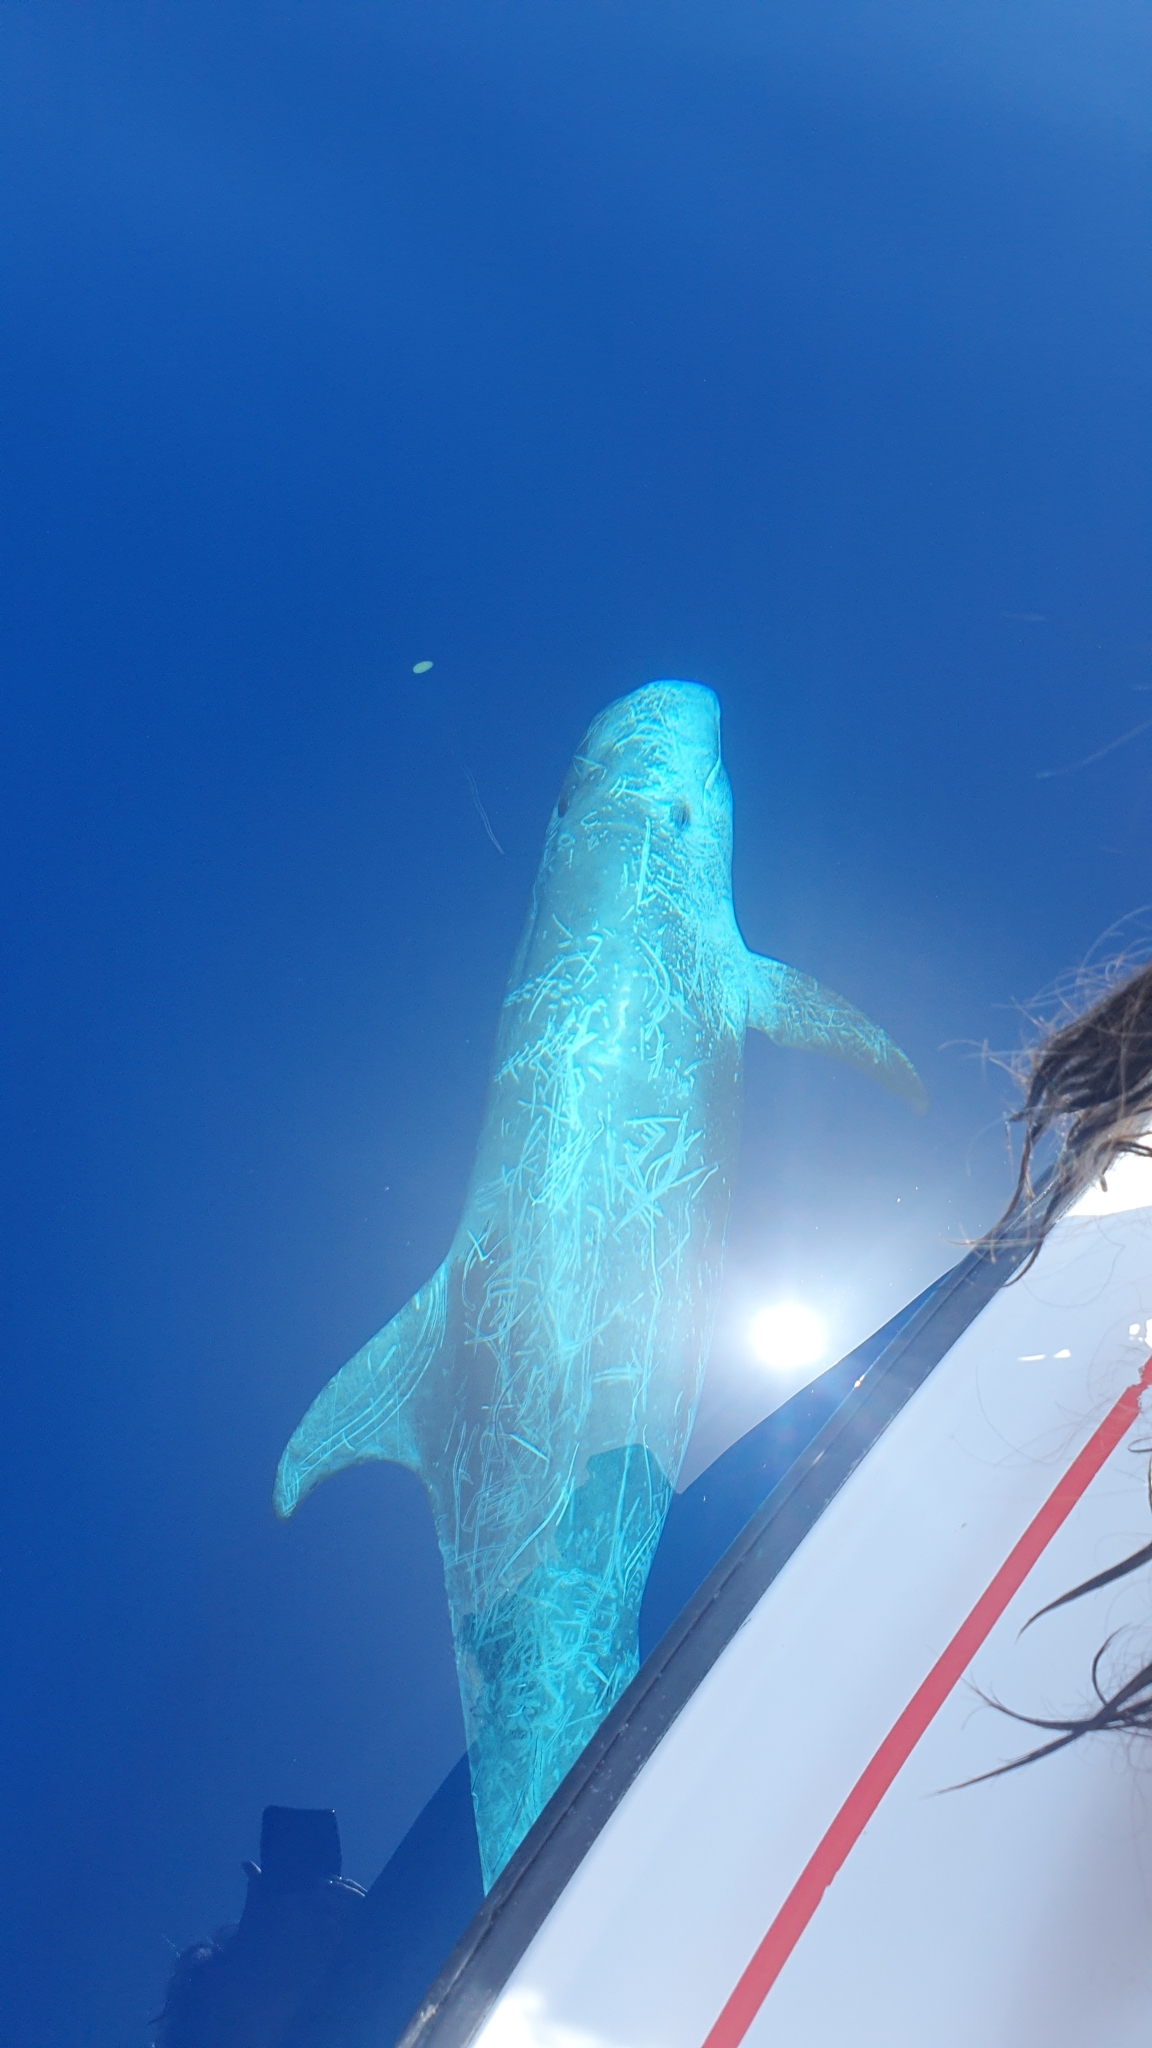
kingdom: Animalia
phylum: Chordata
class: Mammalia
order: Cetacea
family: Delphinidae
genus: Grampus
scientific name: Grampus griseus
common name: Risso's dolphin
